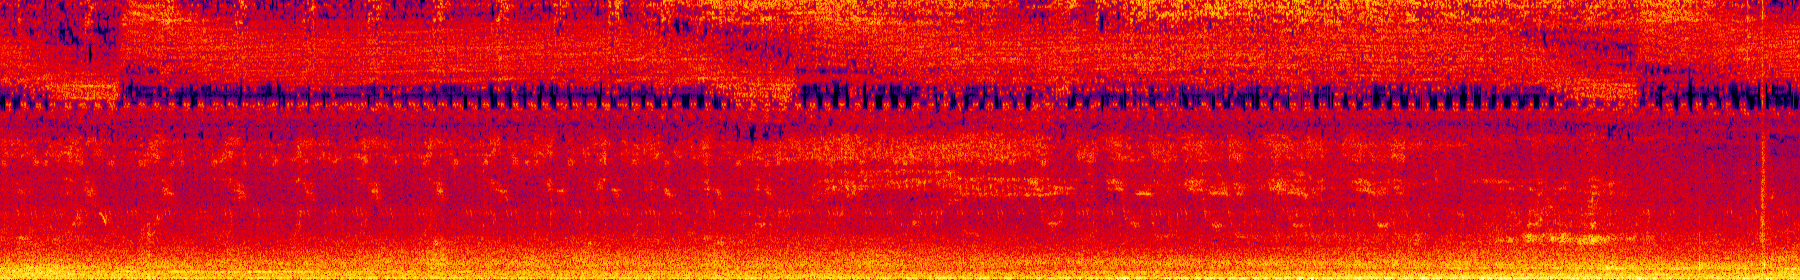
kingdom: Animalia
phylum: Arthropoda
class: Insecta
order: Hemiptera
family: Cicadidae
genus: Meimuna
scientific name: Meimuna opalifera
